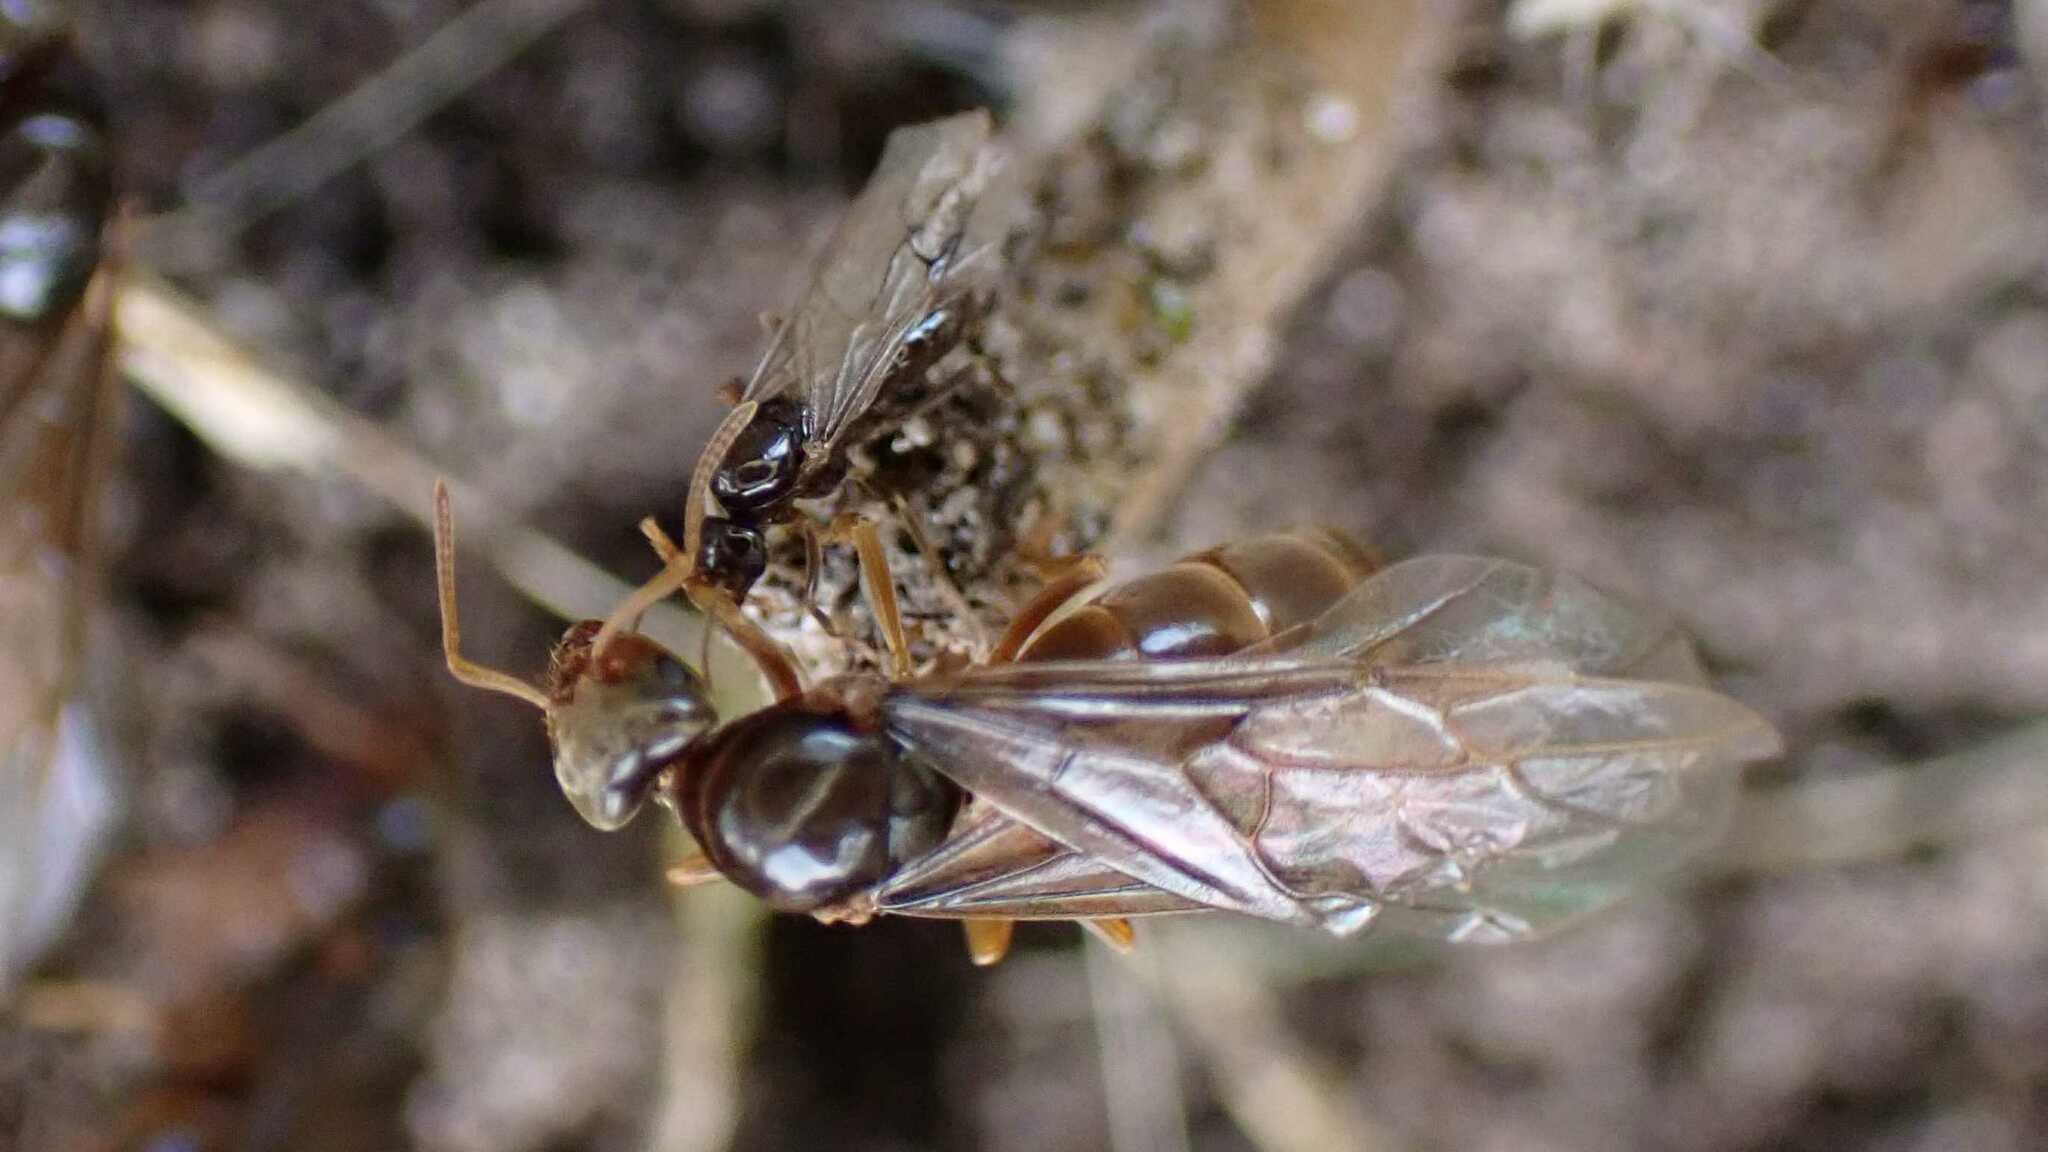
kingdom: Animalia
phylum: Arthropoda
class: Insecta
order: Hymenoptera
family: Formicidae
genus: Lasius
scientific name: Lasius flavus
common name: Blond field ant
